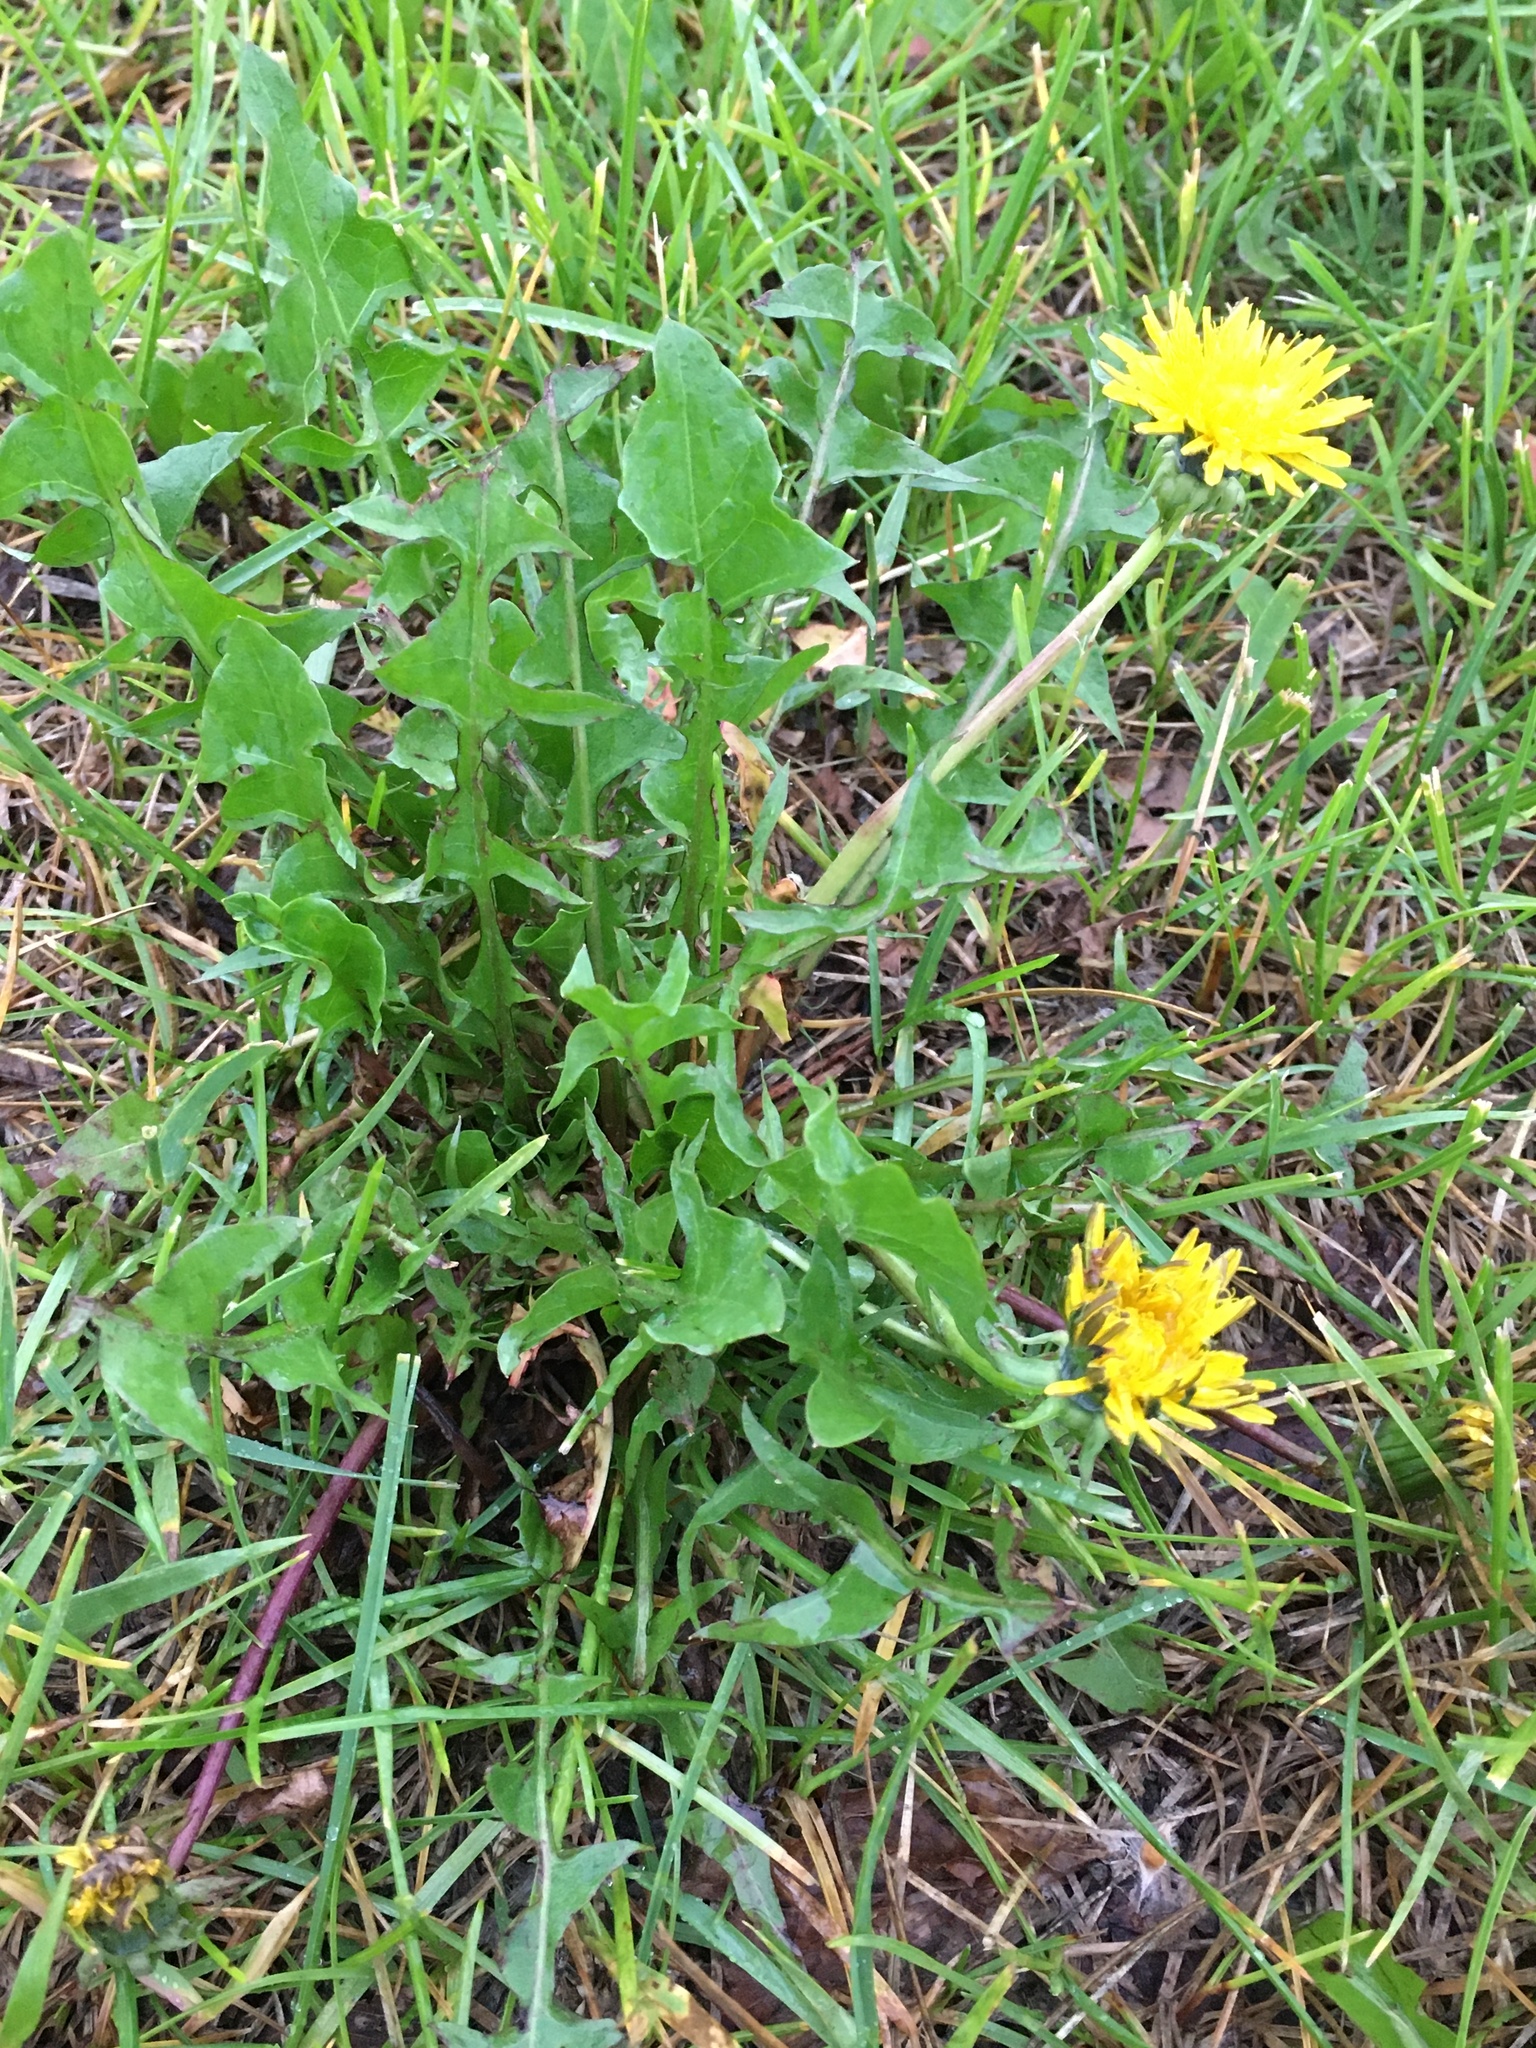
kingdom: Plantae
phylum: Tracheophyta
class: Magnoliopsida
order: Asterales
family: Asteraceae
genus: Taraxacum
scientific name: Taraxacum officinale
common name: Common dandelion
